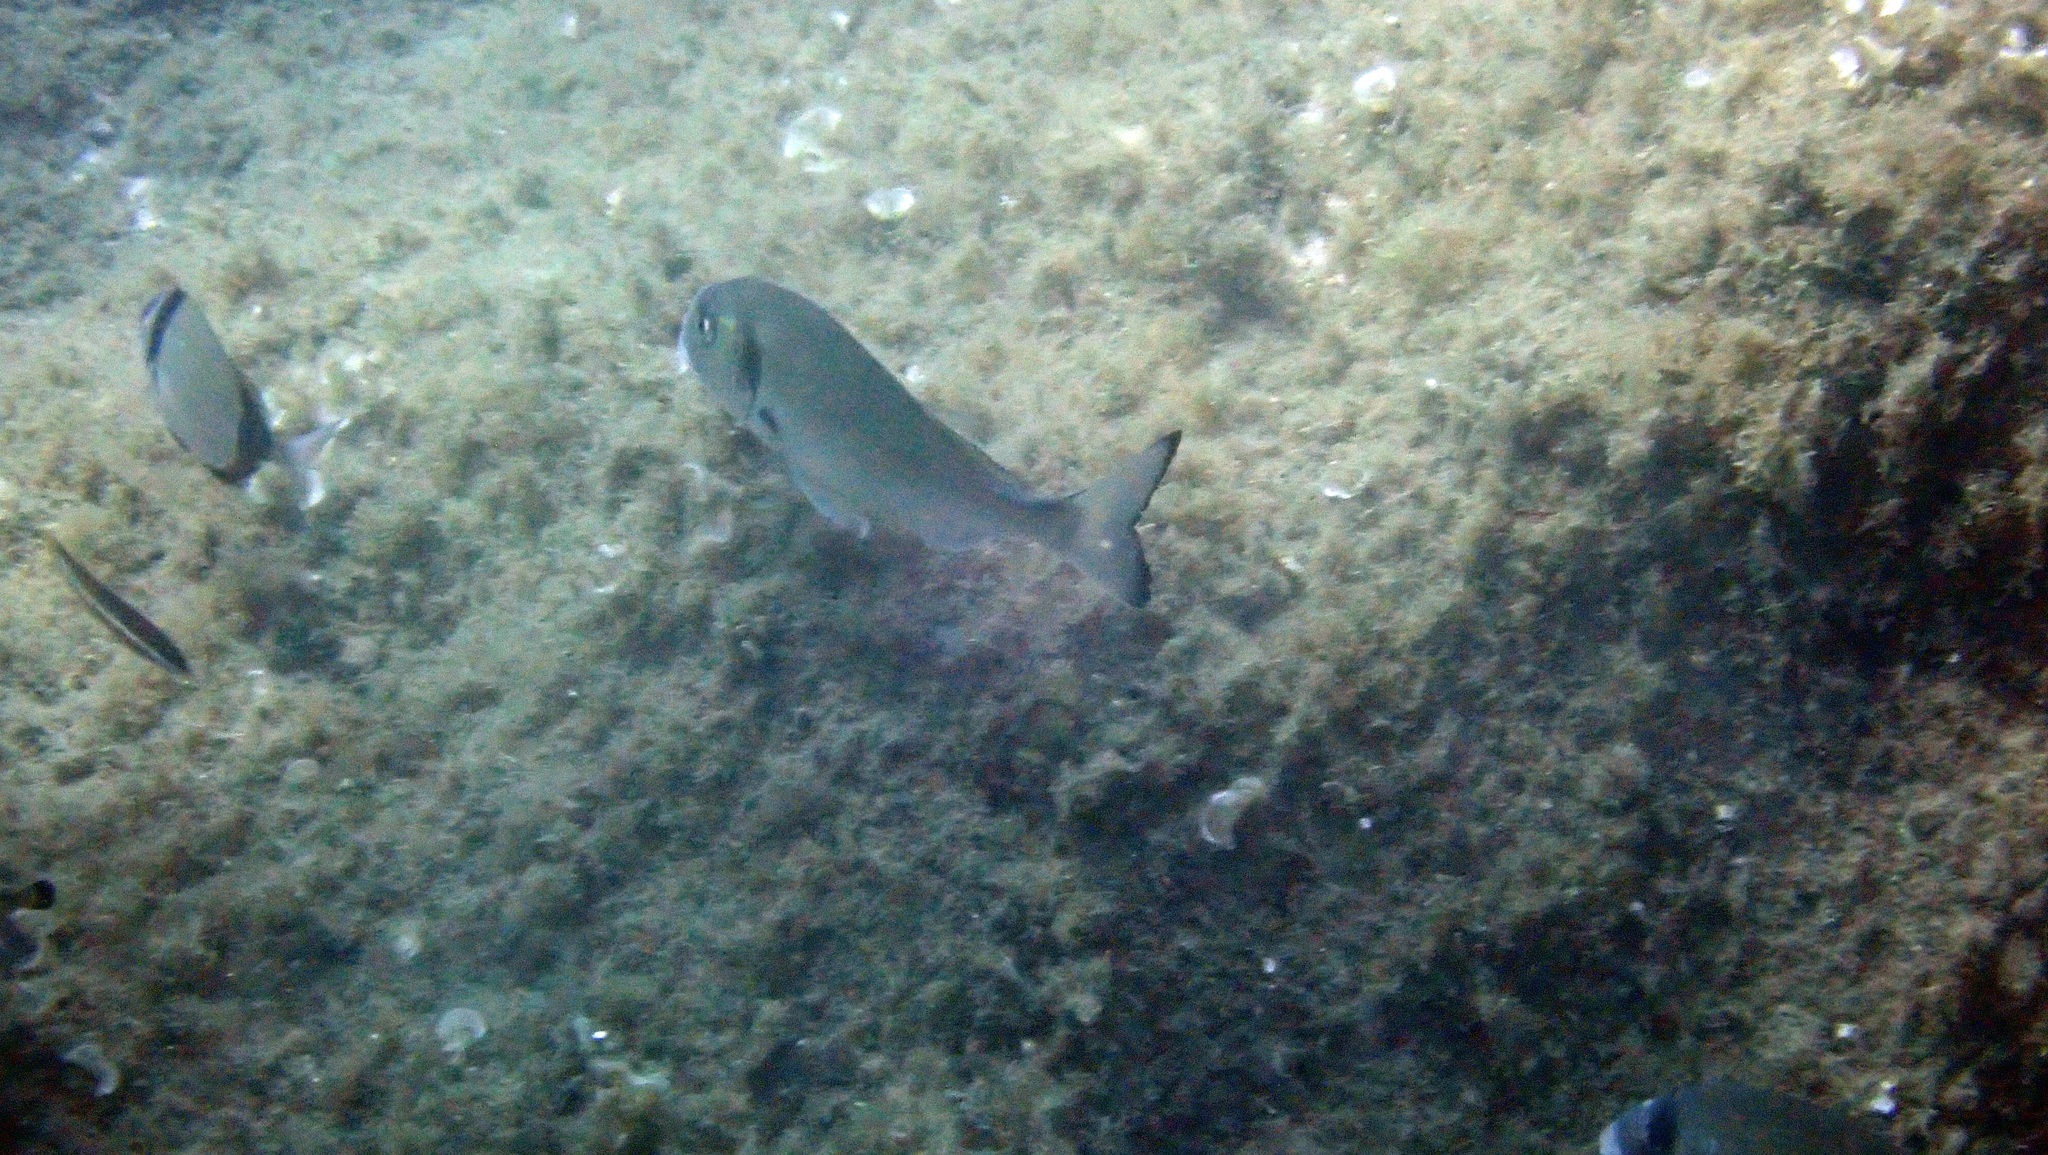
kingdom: Animalia
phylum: Chordata
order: Perciformes
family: Sparidae
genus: Sparus
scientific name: Sparus aurata
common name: Gilthead
